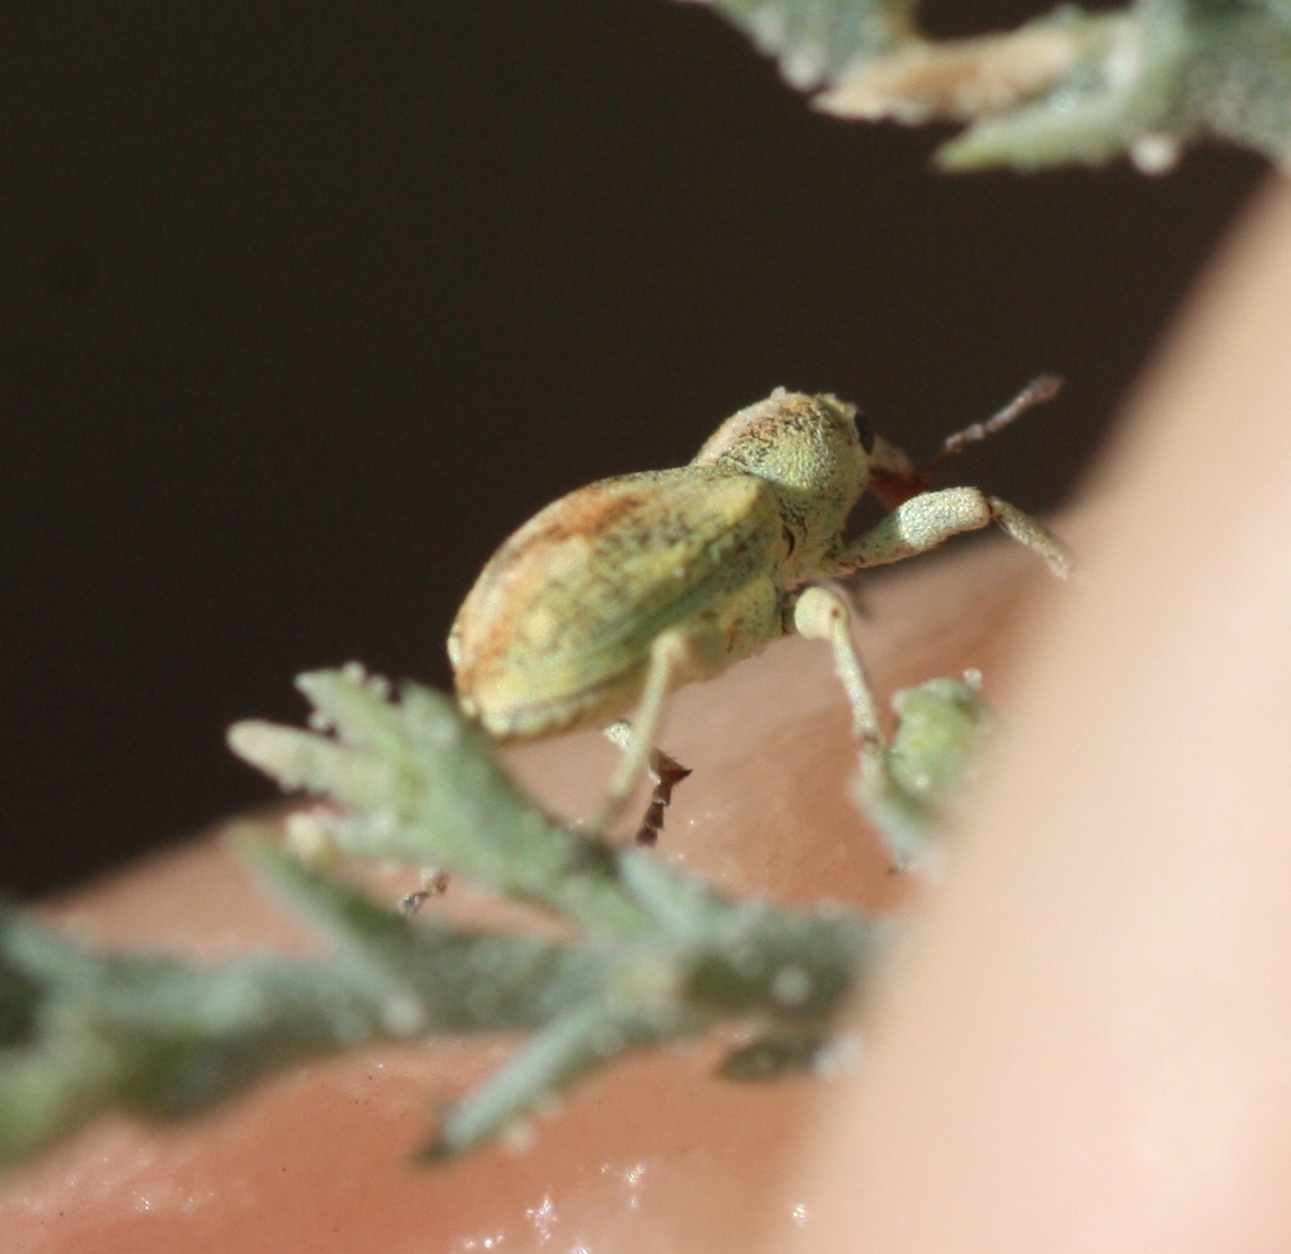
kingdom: Animalia
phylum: Arthropoda
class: Insecta
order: Coleoptera
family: Curculionidae
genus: Coniatus
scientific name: Coniatus splendidulus
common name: Splendid tamarisk weevil
